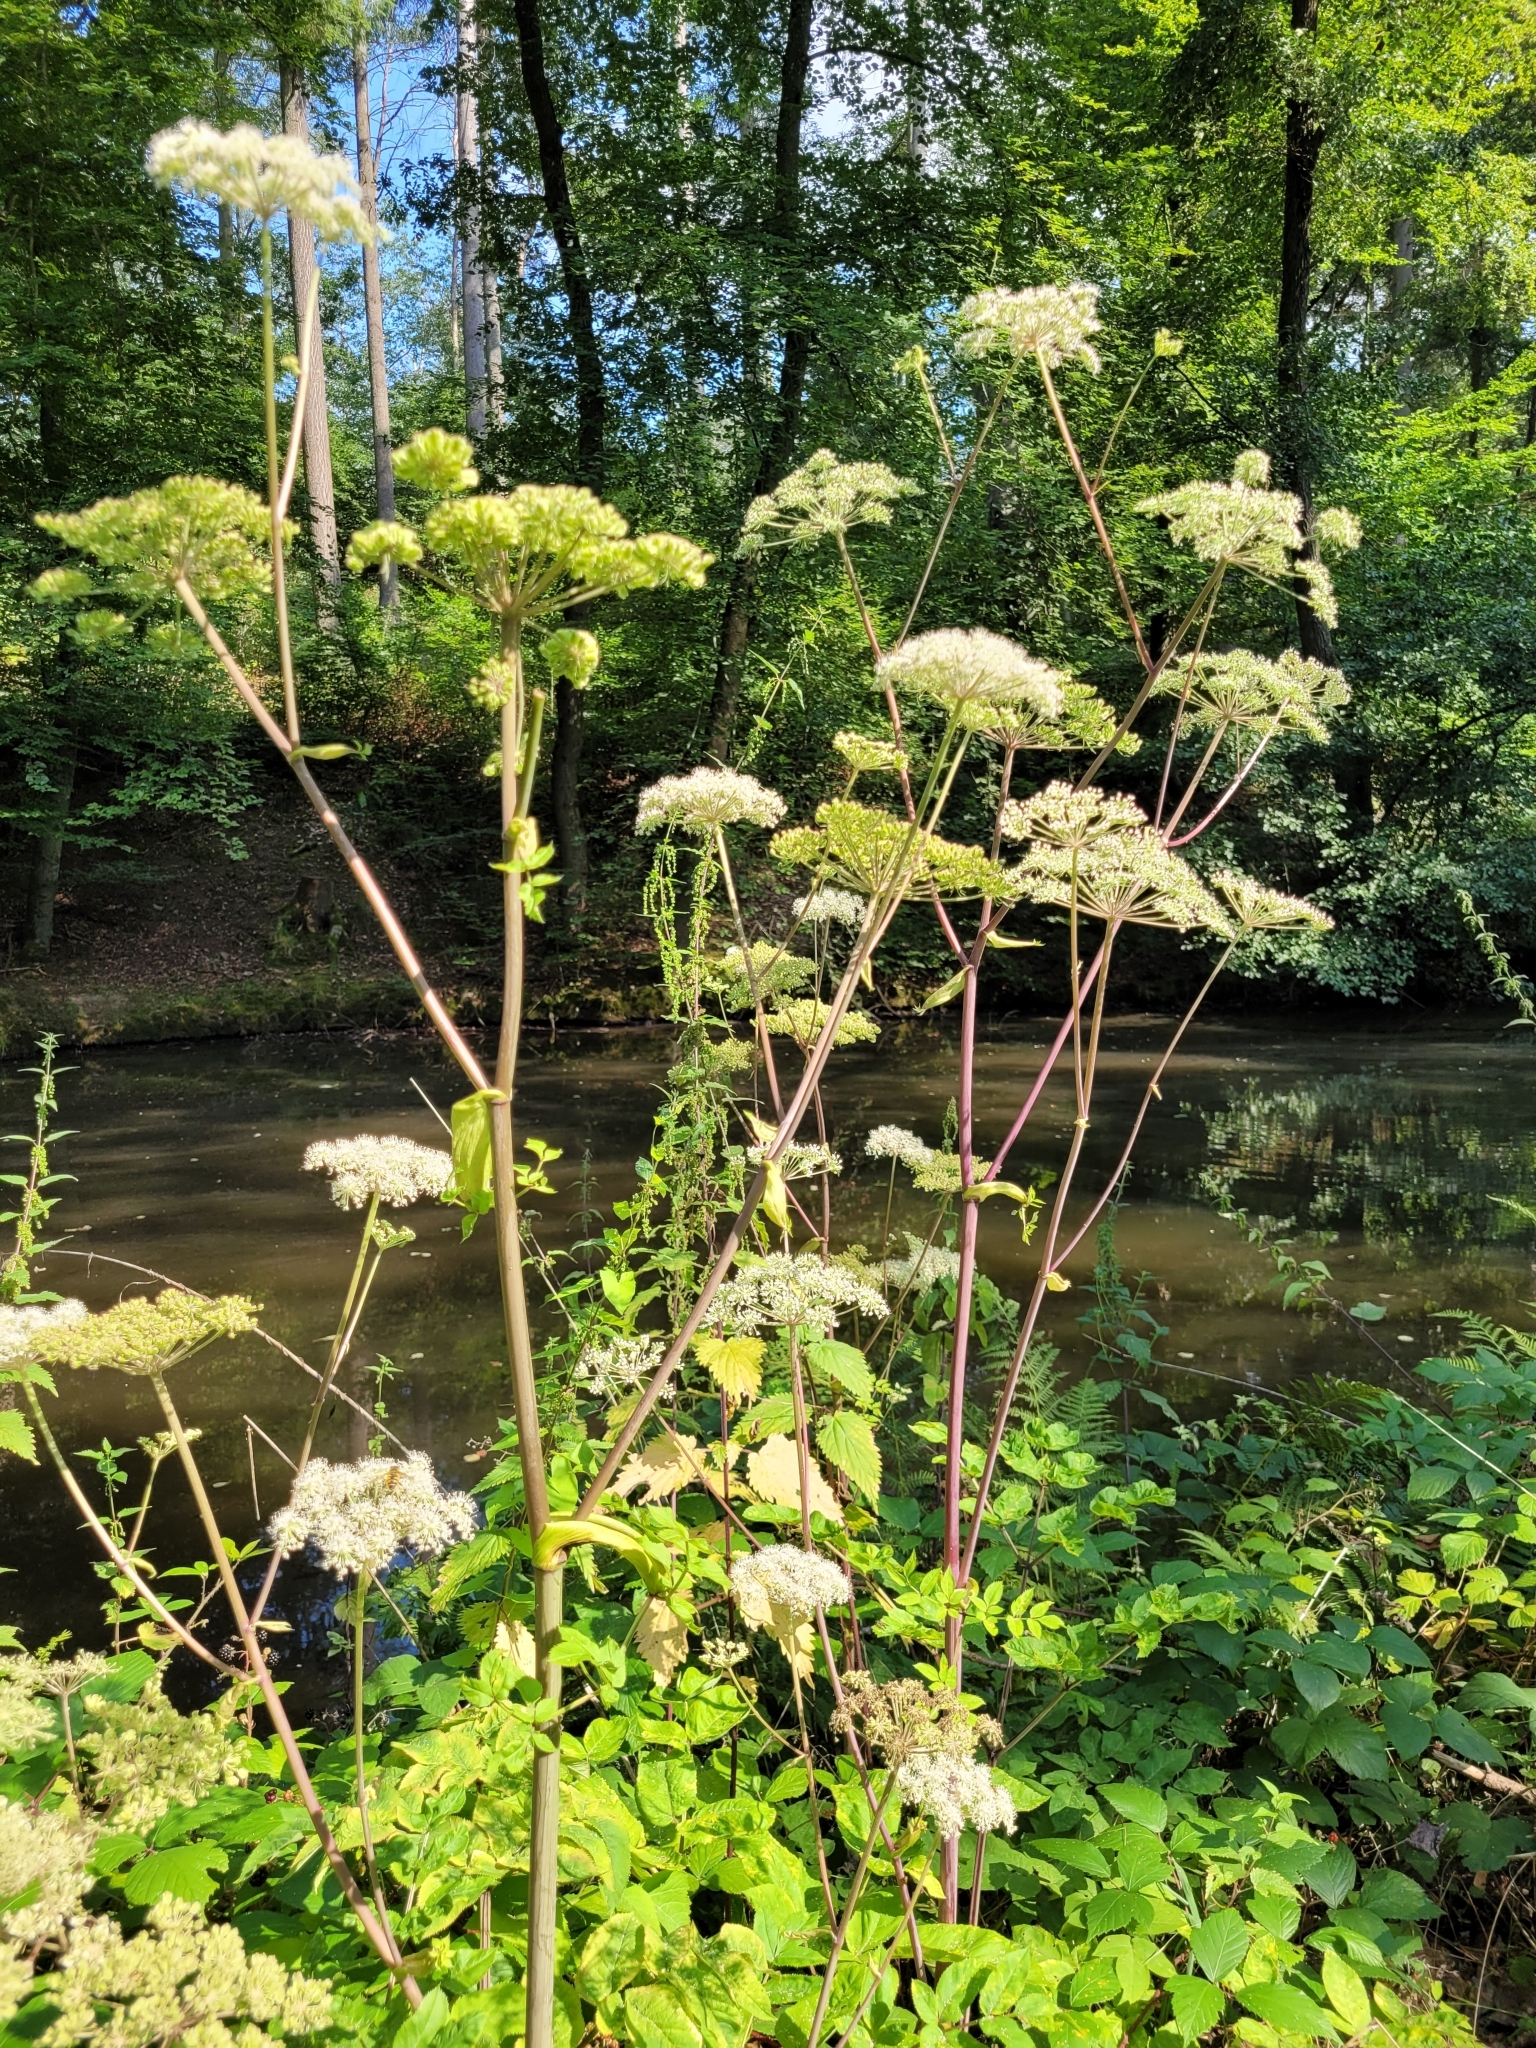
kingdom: Plantae
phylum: Tracheophyta
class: Magnoliopsida
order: Apiales
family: Apiaceae
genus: Angelica
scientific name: Angelica sylvestris
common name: Wild angelica
